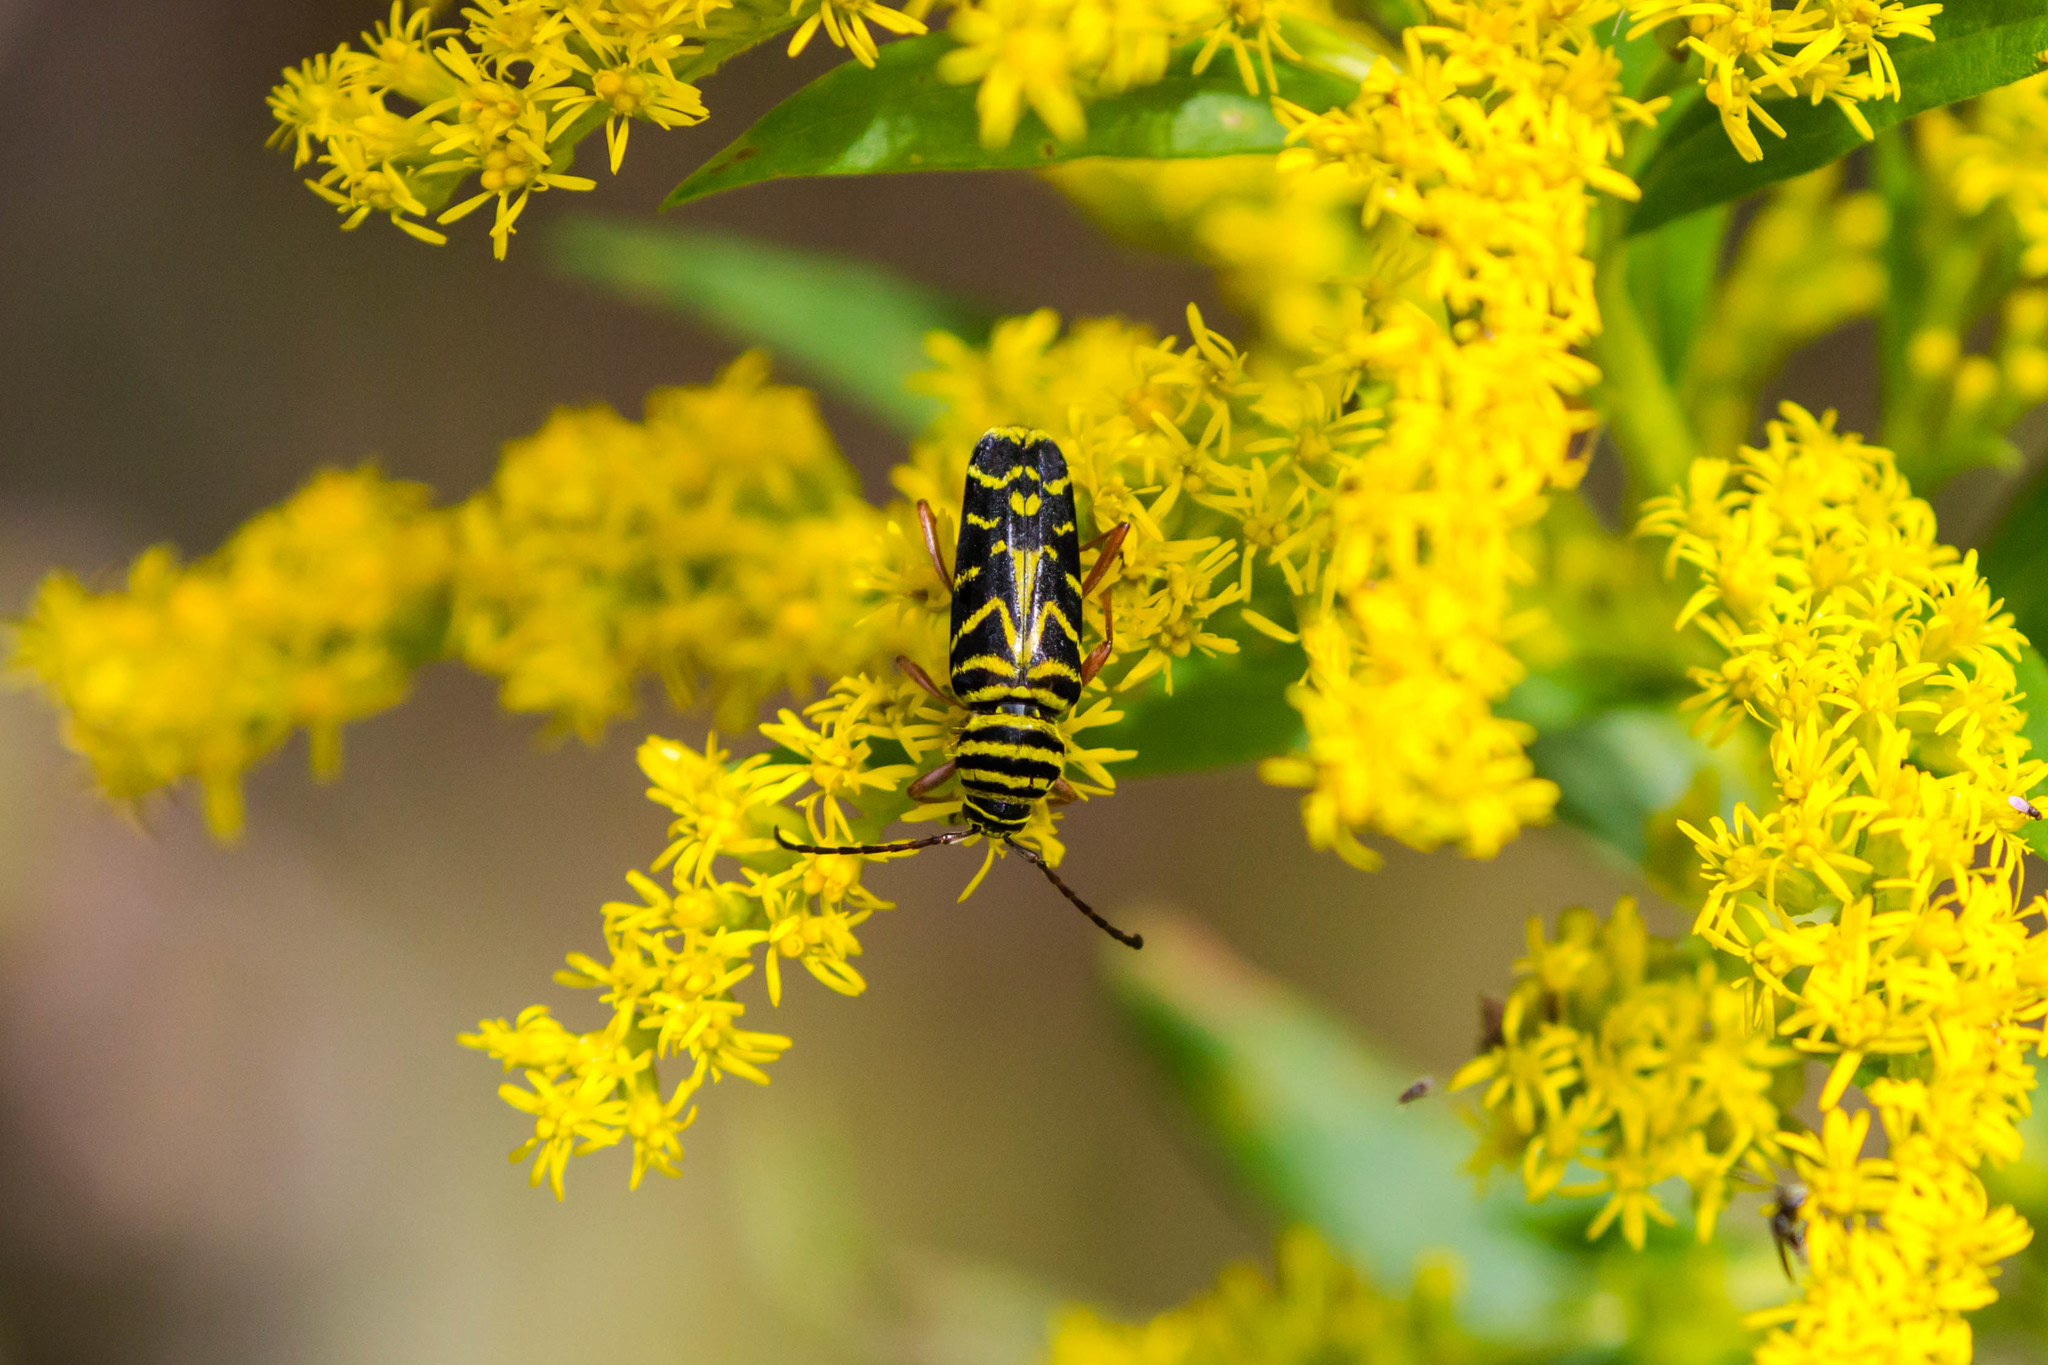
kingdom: Animalia
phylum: Arthropoda
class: Insecta
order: Coleoptera
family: Cerambycidae
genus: Megacyllene
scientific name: Megacyllene robiniae
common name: Locust borer
